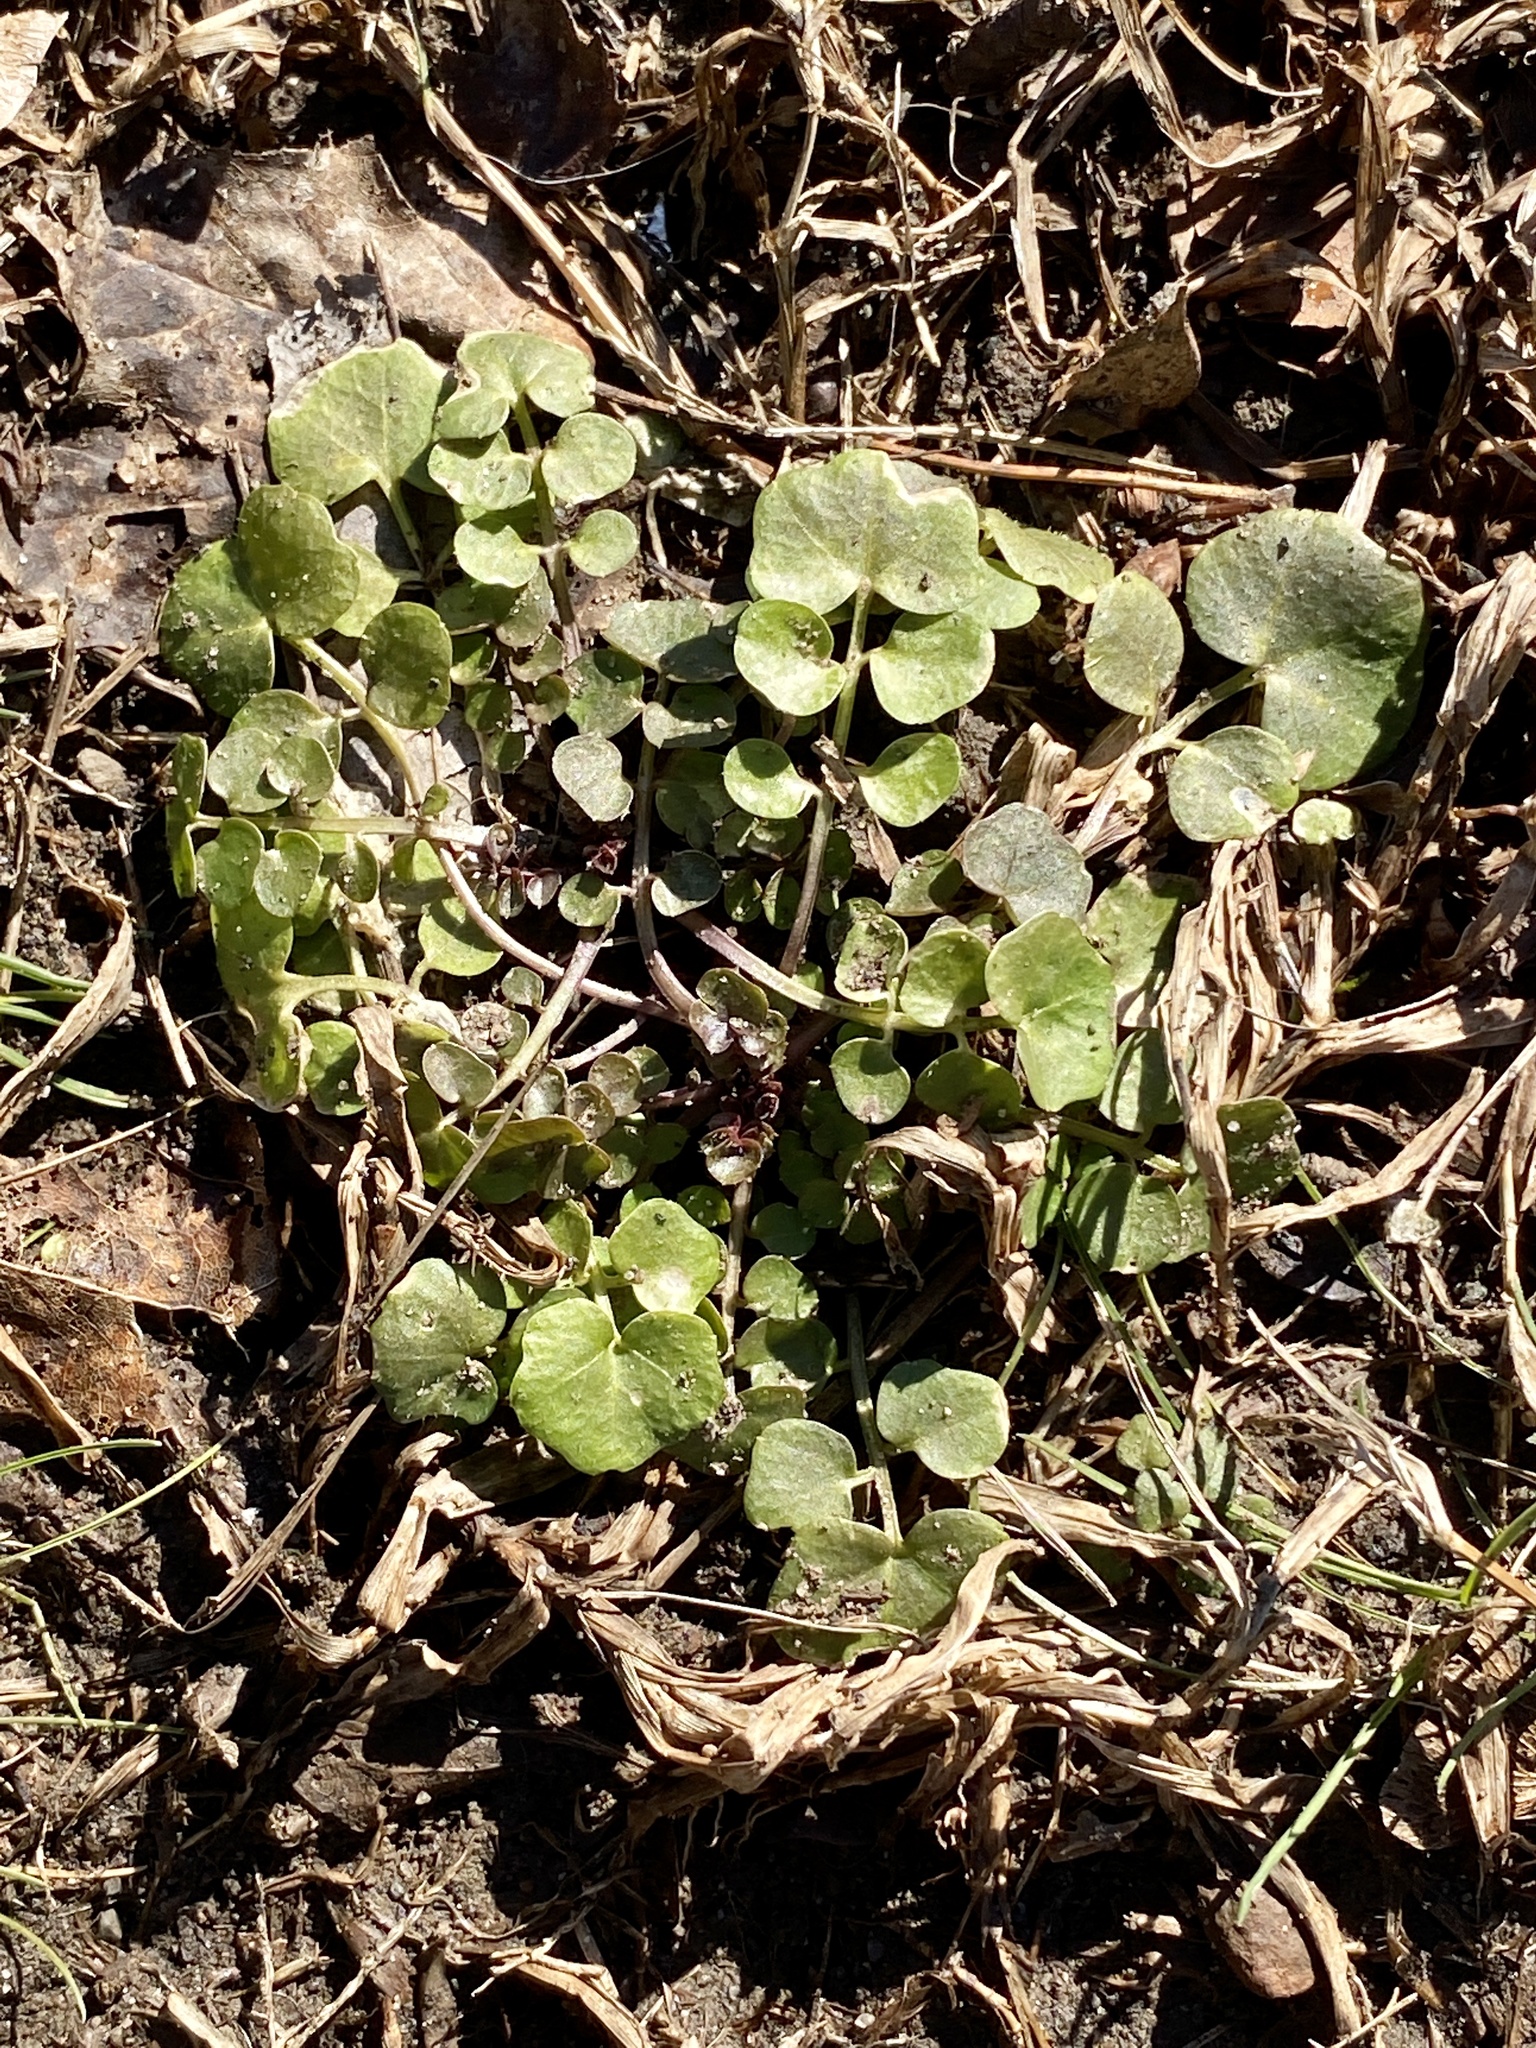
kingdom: Plantae
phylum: Tracheophyta
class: Magnoliopsida
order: Brassicales
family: Brassicaceae
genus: Cardamine
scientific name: Cardamine hirsuta
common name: Hairy bittercress
